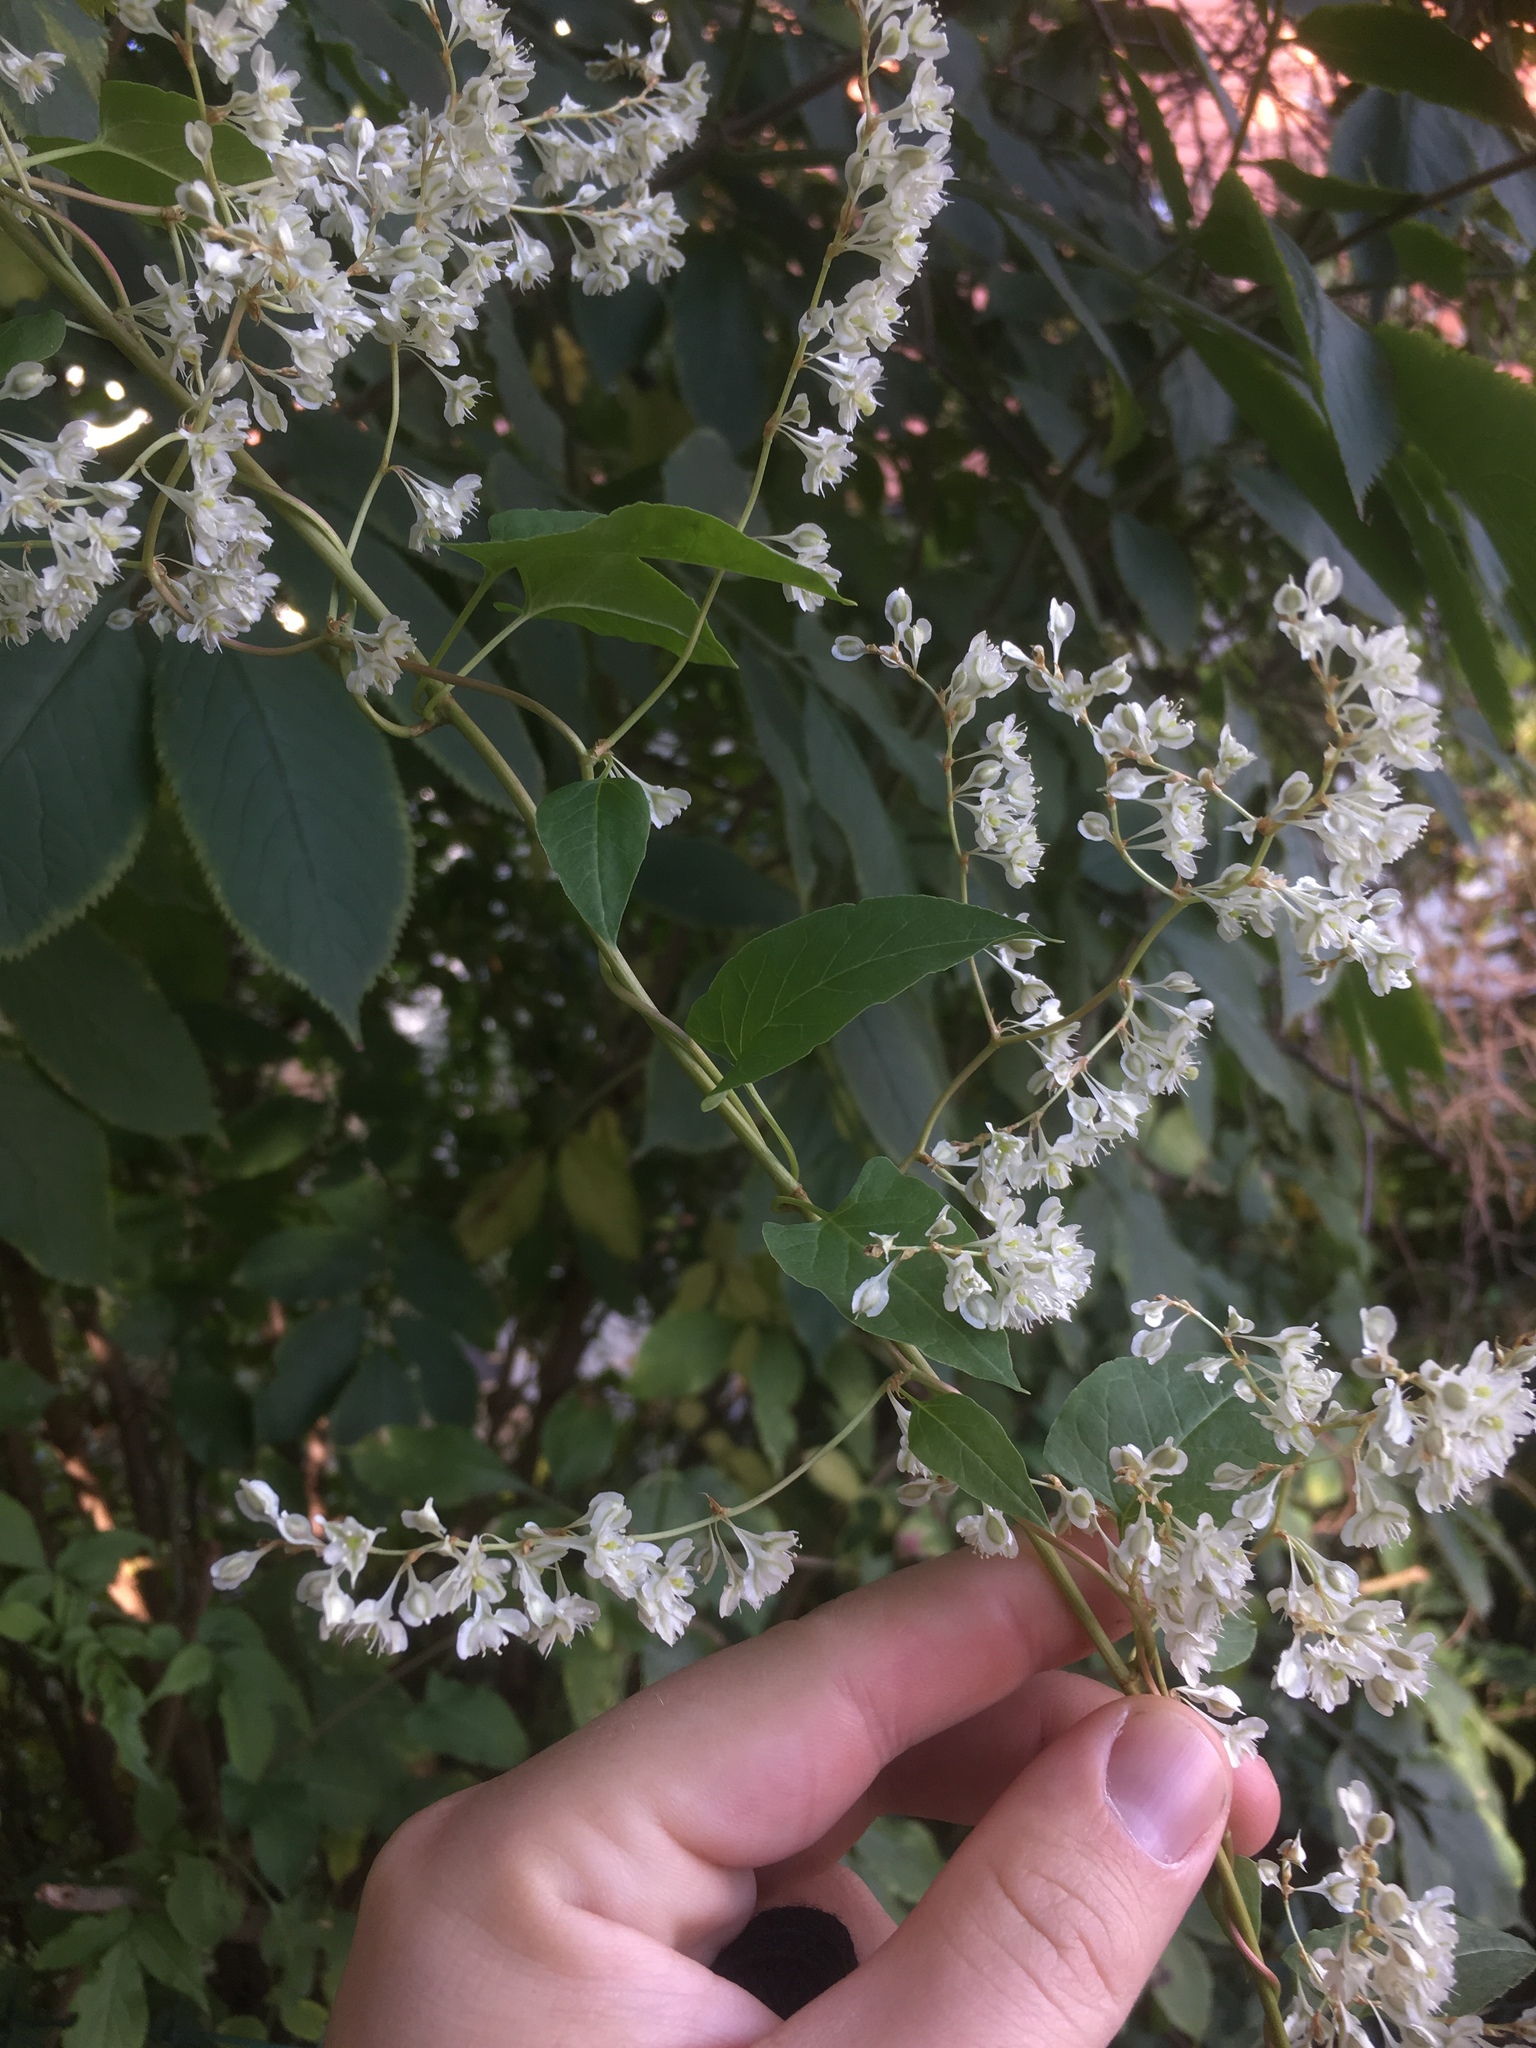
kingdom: Plantae
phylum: Tracheophyta
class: Magnoliopsida
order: Caryophyllales
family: Polygonaceae
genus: Fallopia
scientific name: Fallopia baldschuanica
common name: Russian-vine
